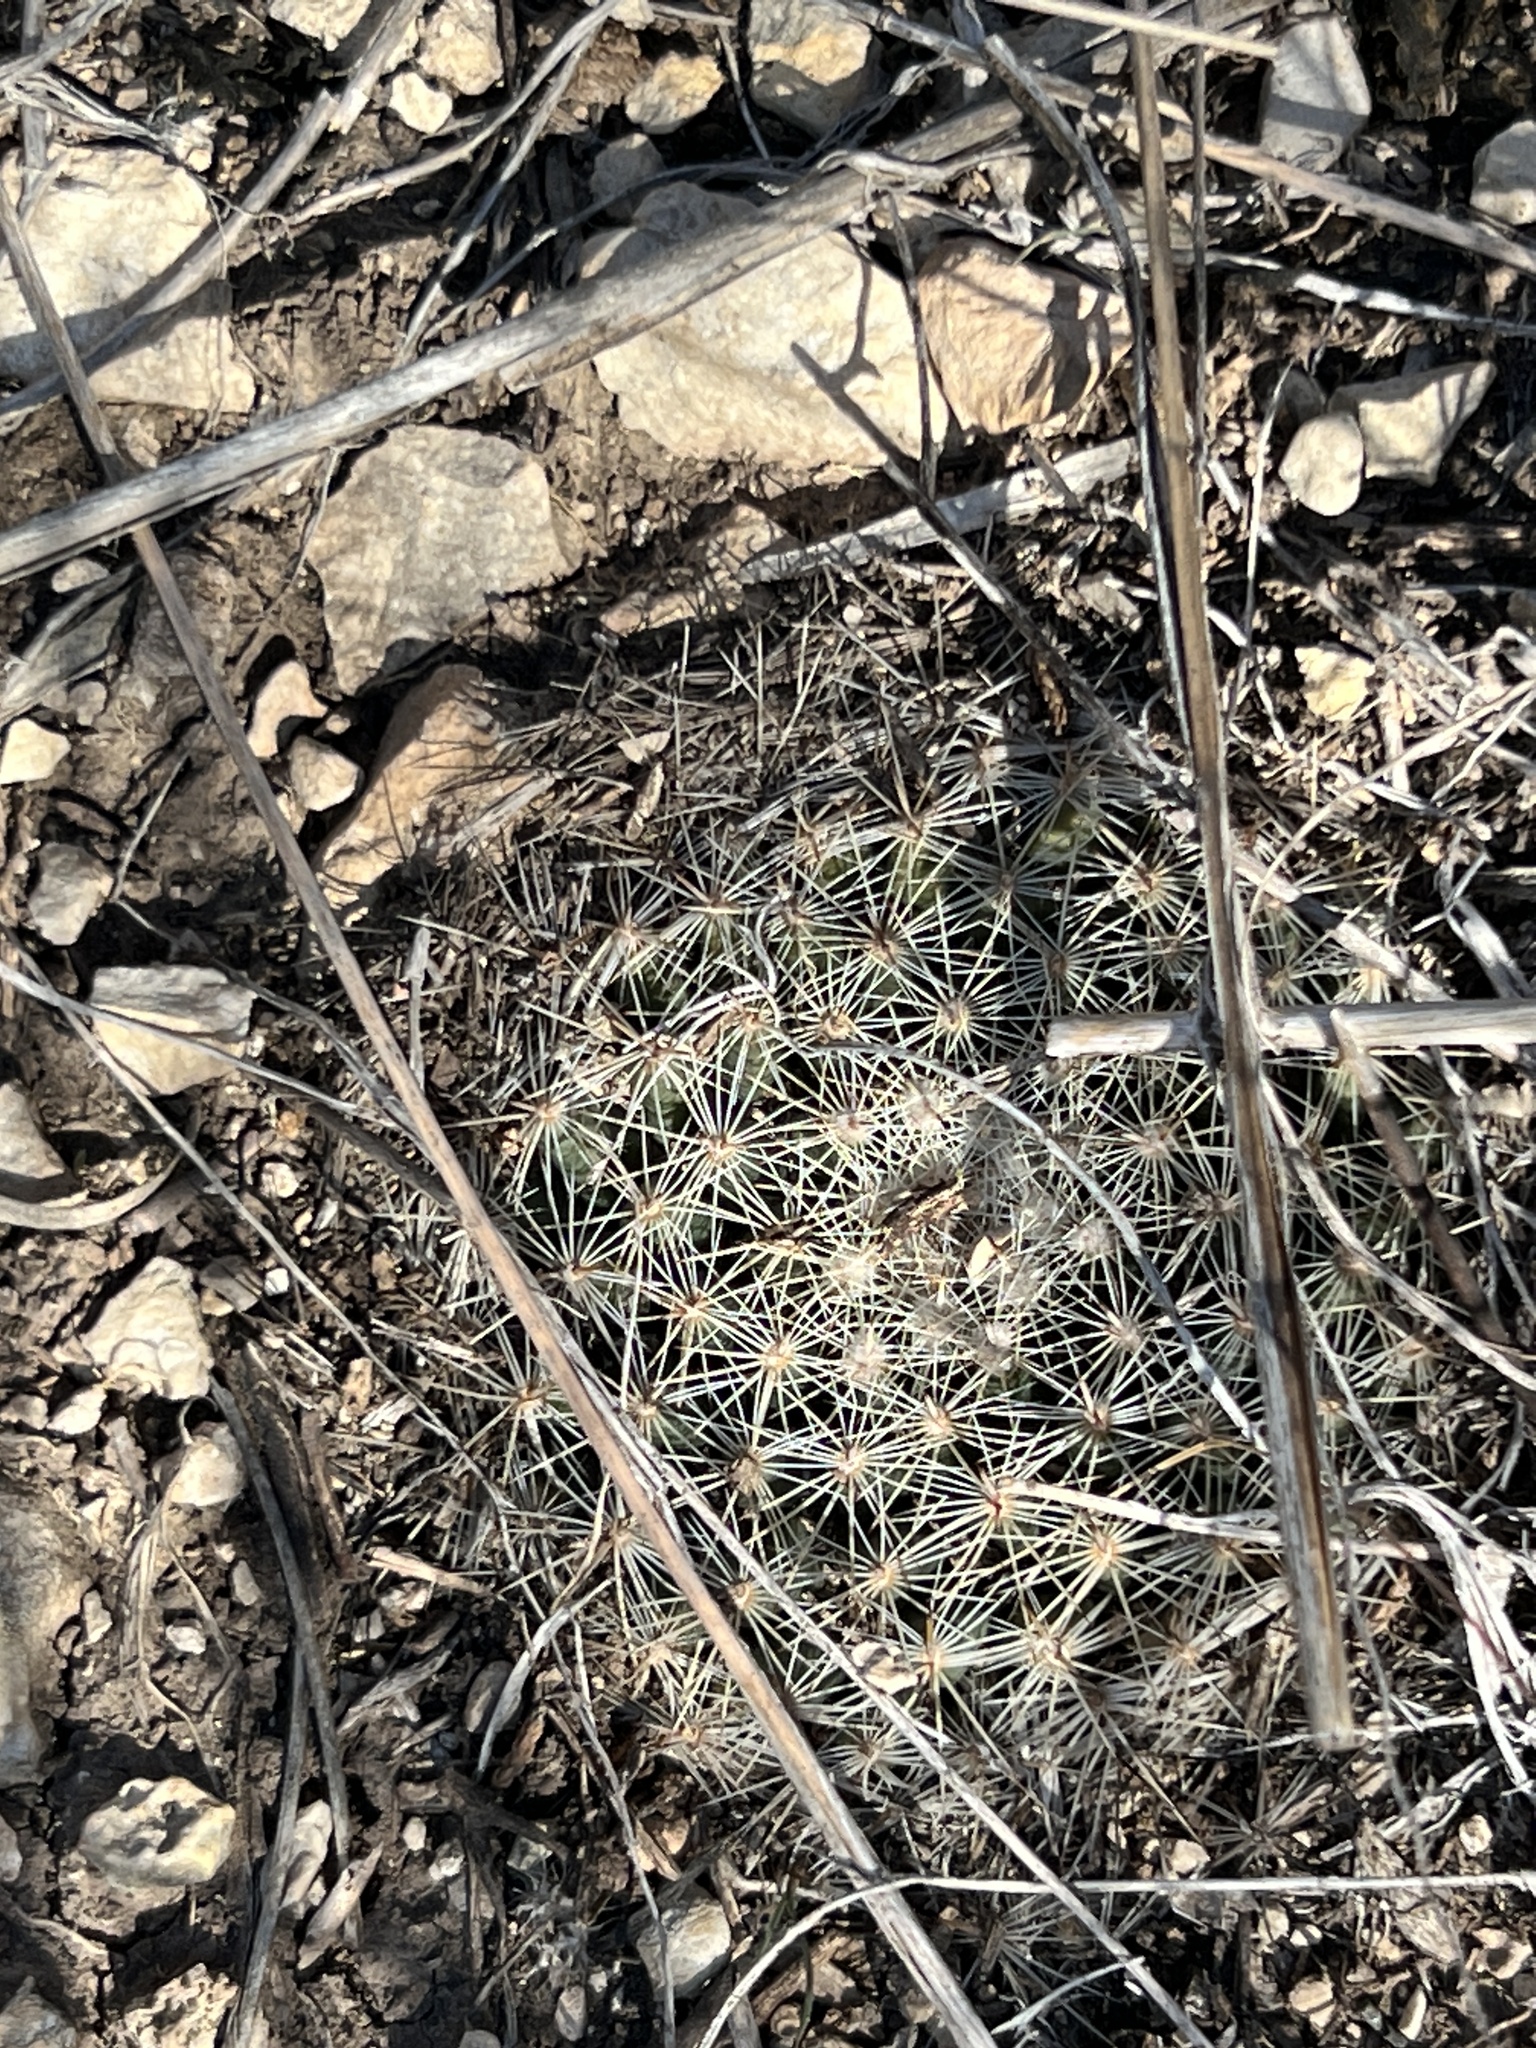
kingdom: Plantae
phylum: Tracheophyta
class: Magnoliopsida
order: Caryophyllales
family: Cactaceae
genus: Mammillaria
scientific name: Mammillaria heyderi
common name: Little nipple cactus
